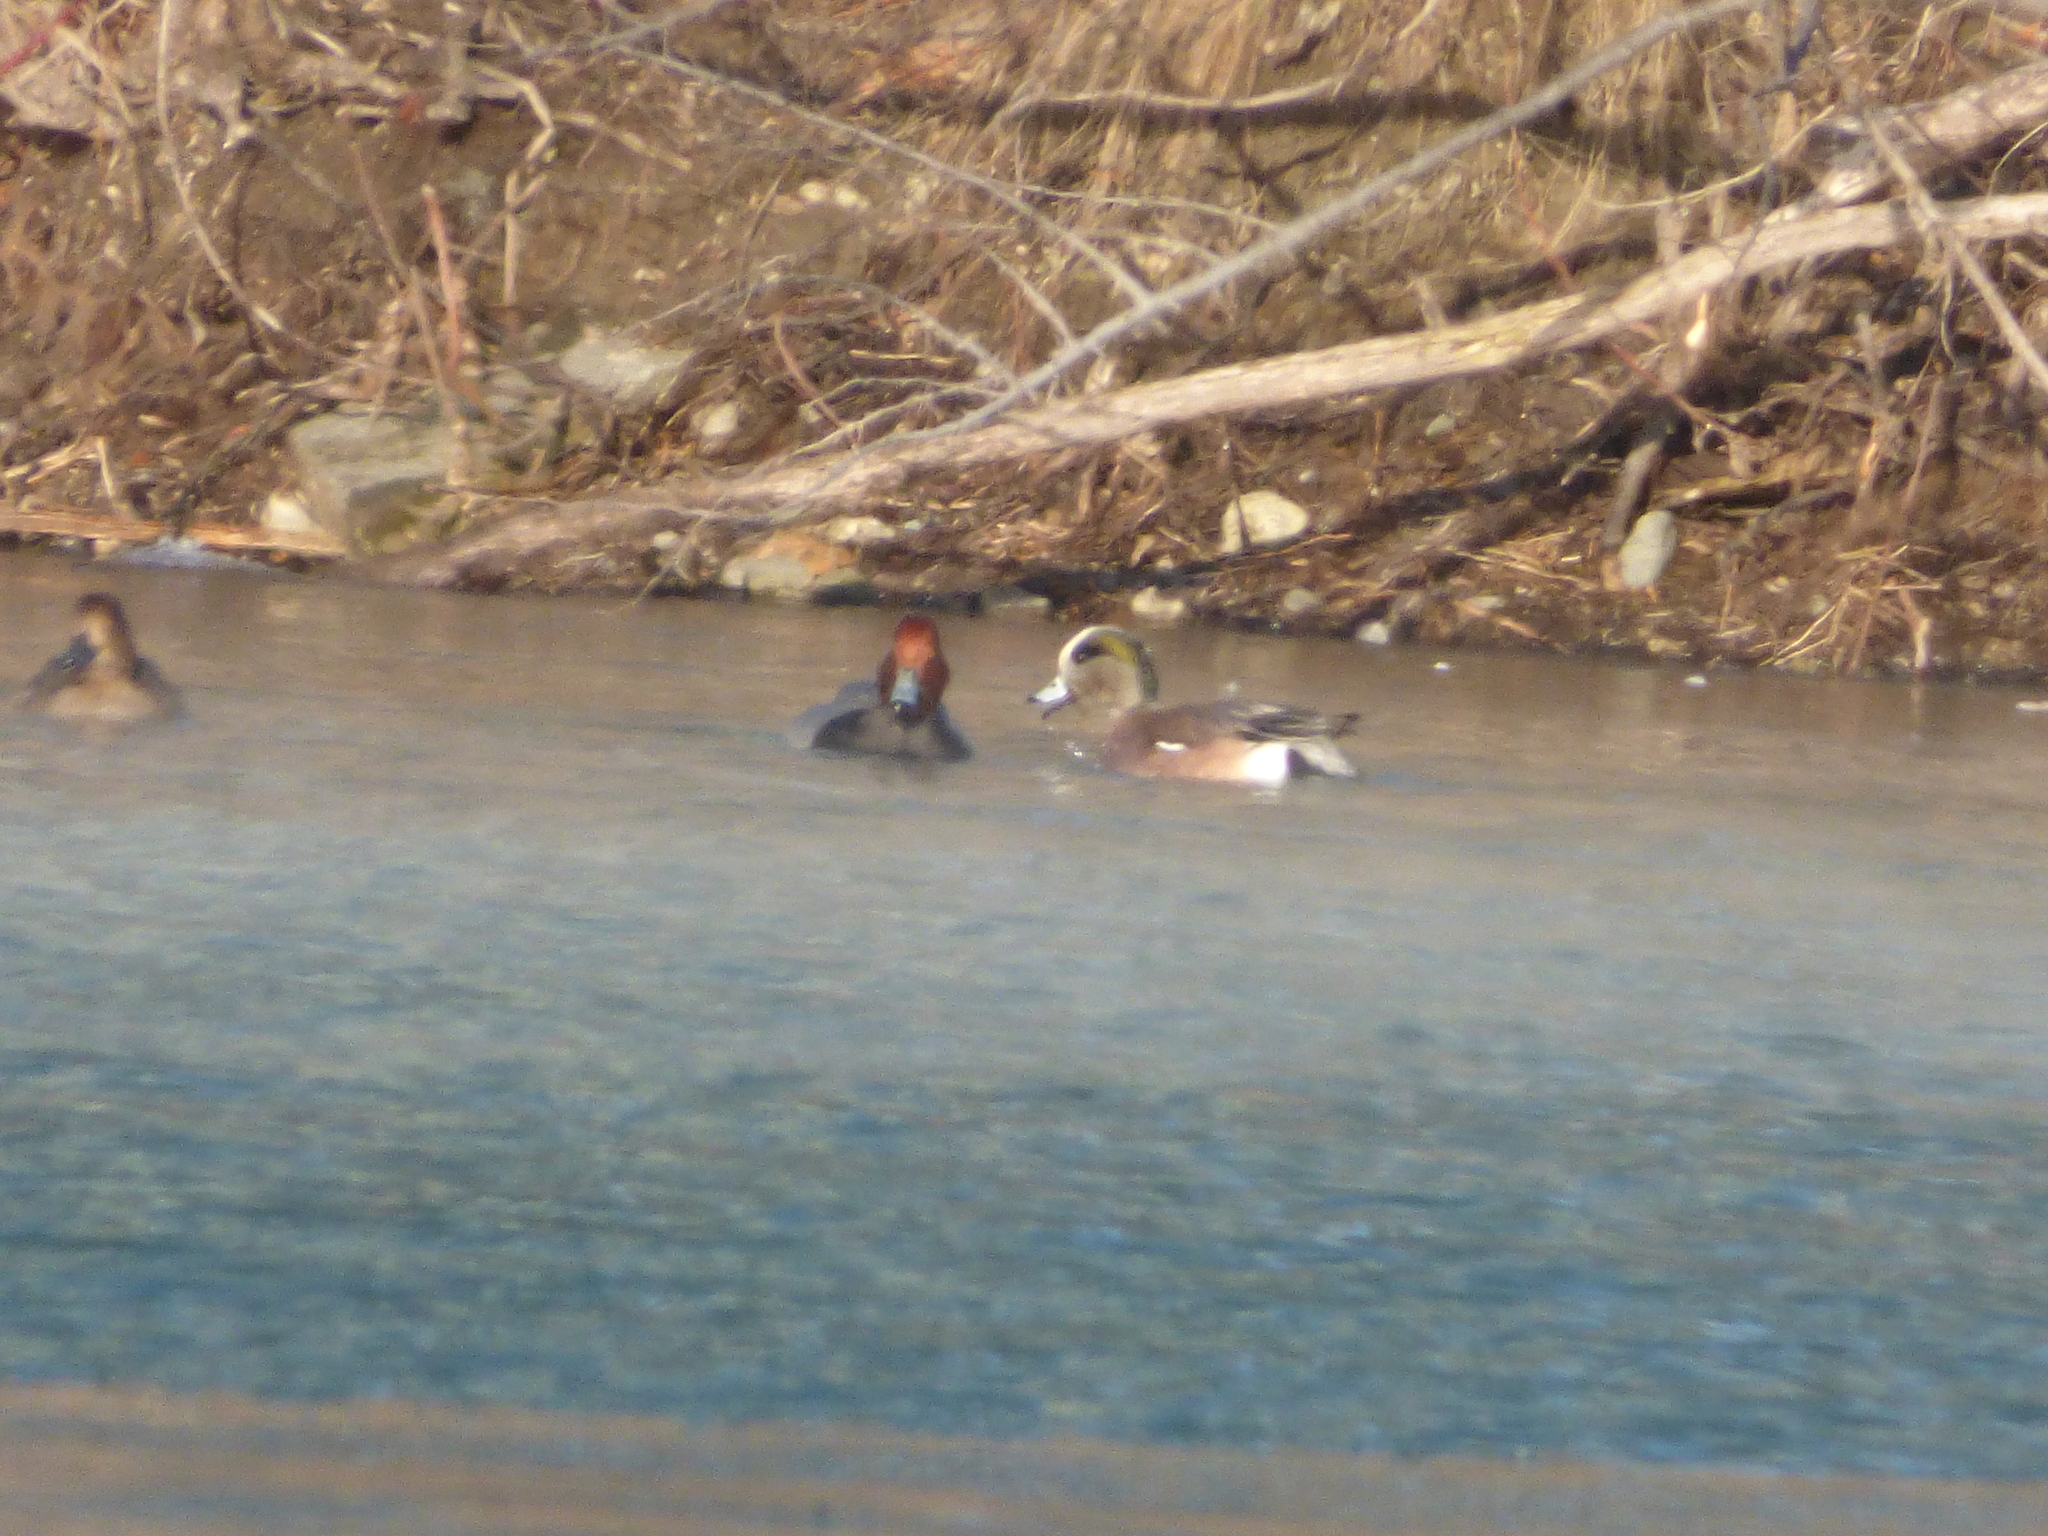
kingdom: Animalia
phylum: Chordata
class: Aves
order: Anseriformes
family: Anatidae
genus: Mareca
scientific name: Mareca americana
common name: American wigeon
